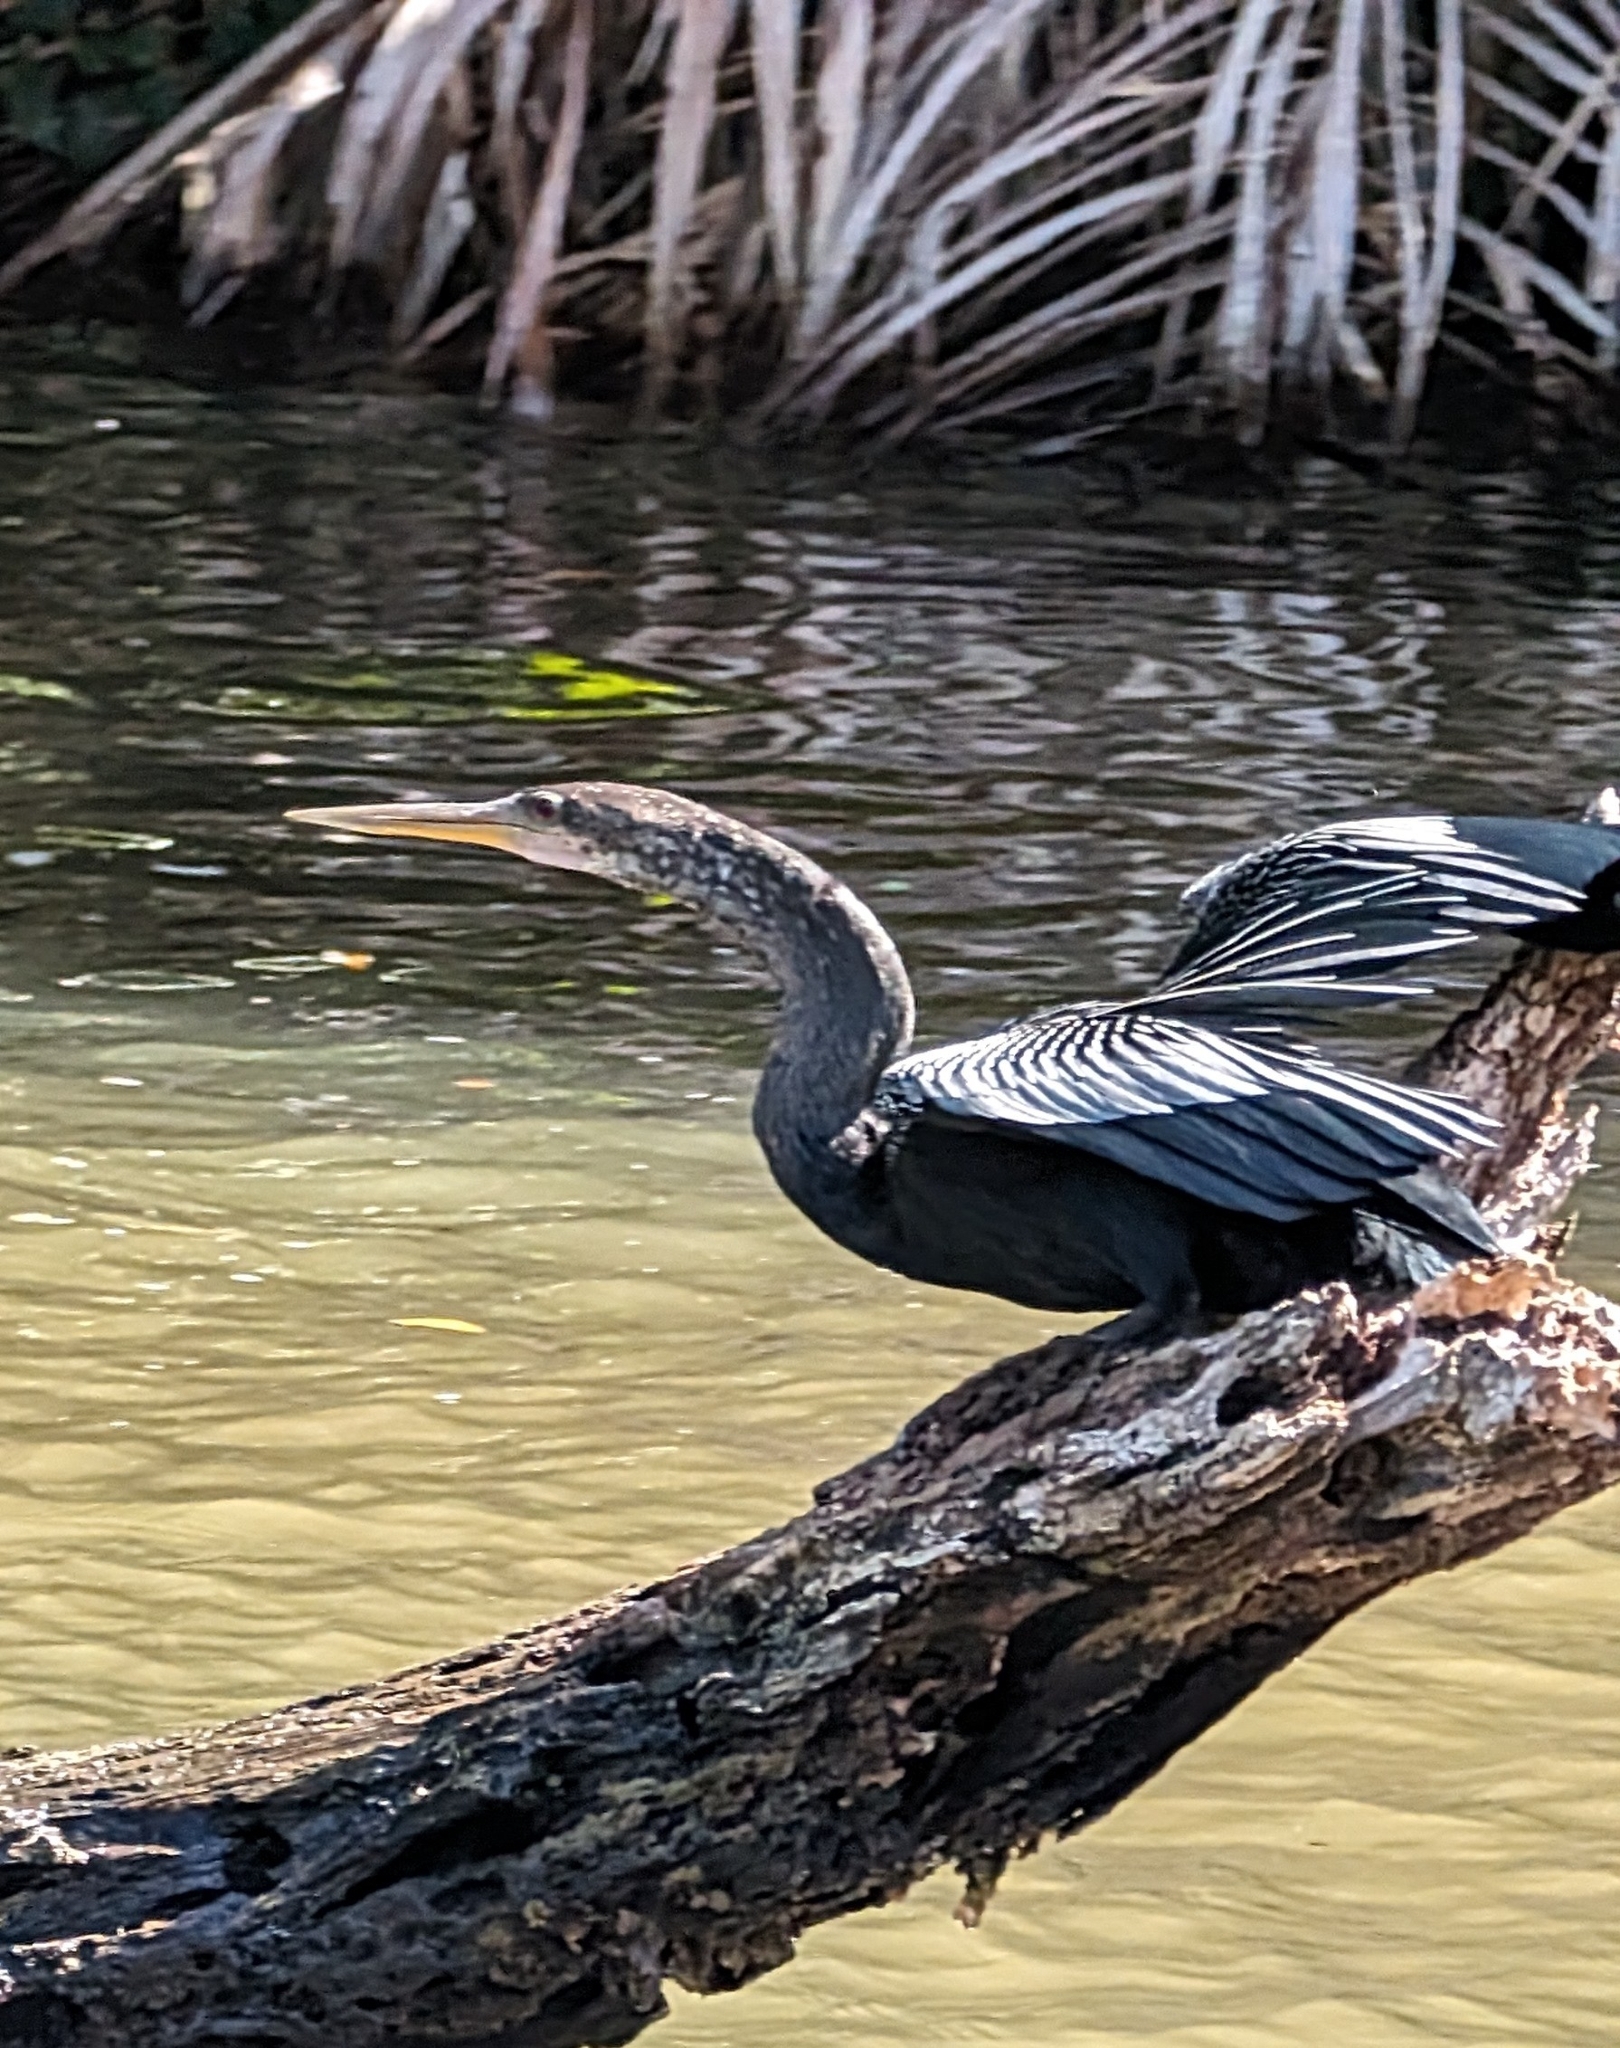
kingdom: Animalia
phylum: Chordata
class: Aves
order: Suliformes
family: Anhingidae
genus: Anhinga
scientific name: Anhinga anhinga
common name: Anhinga
